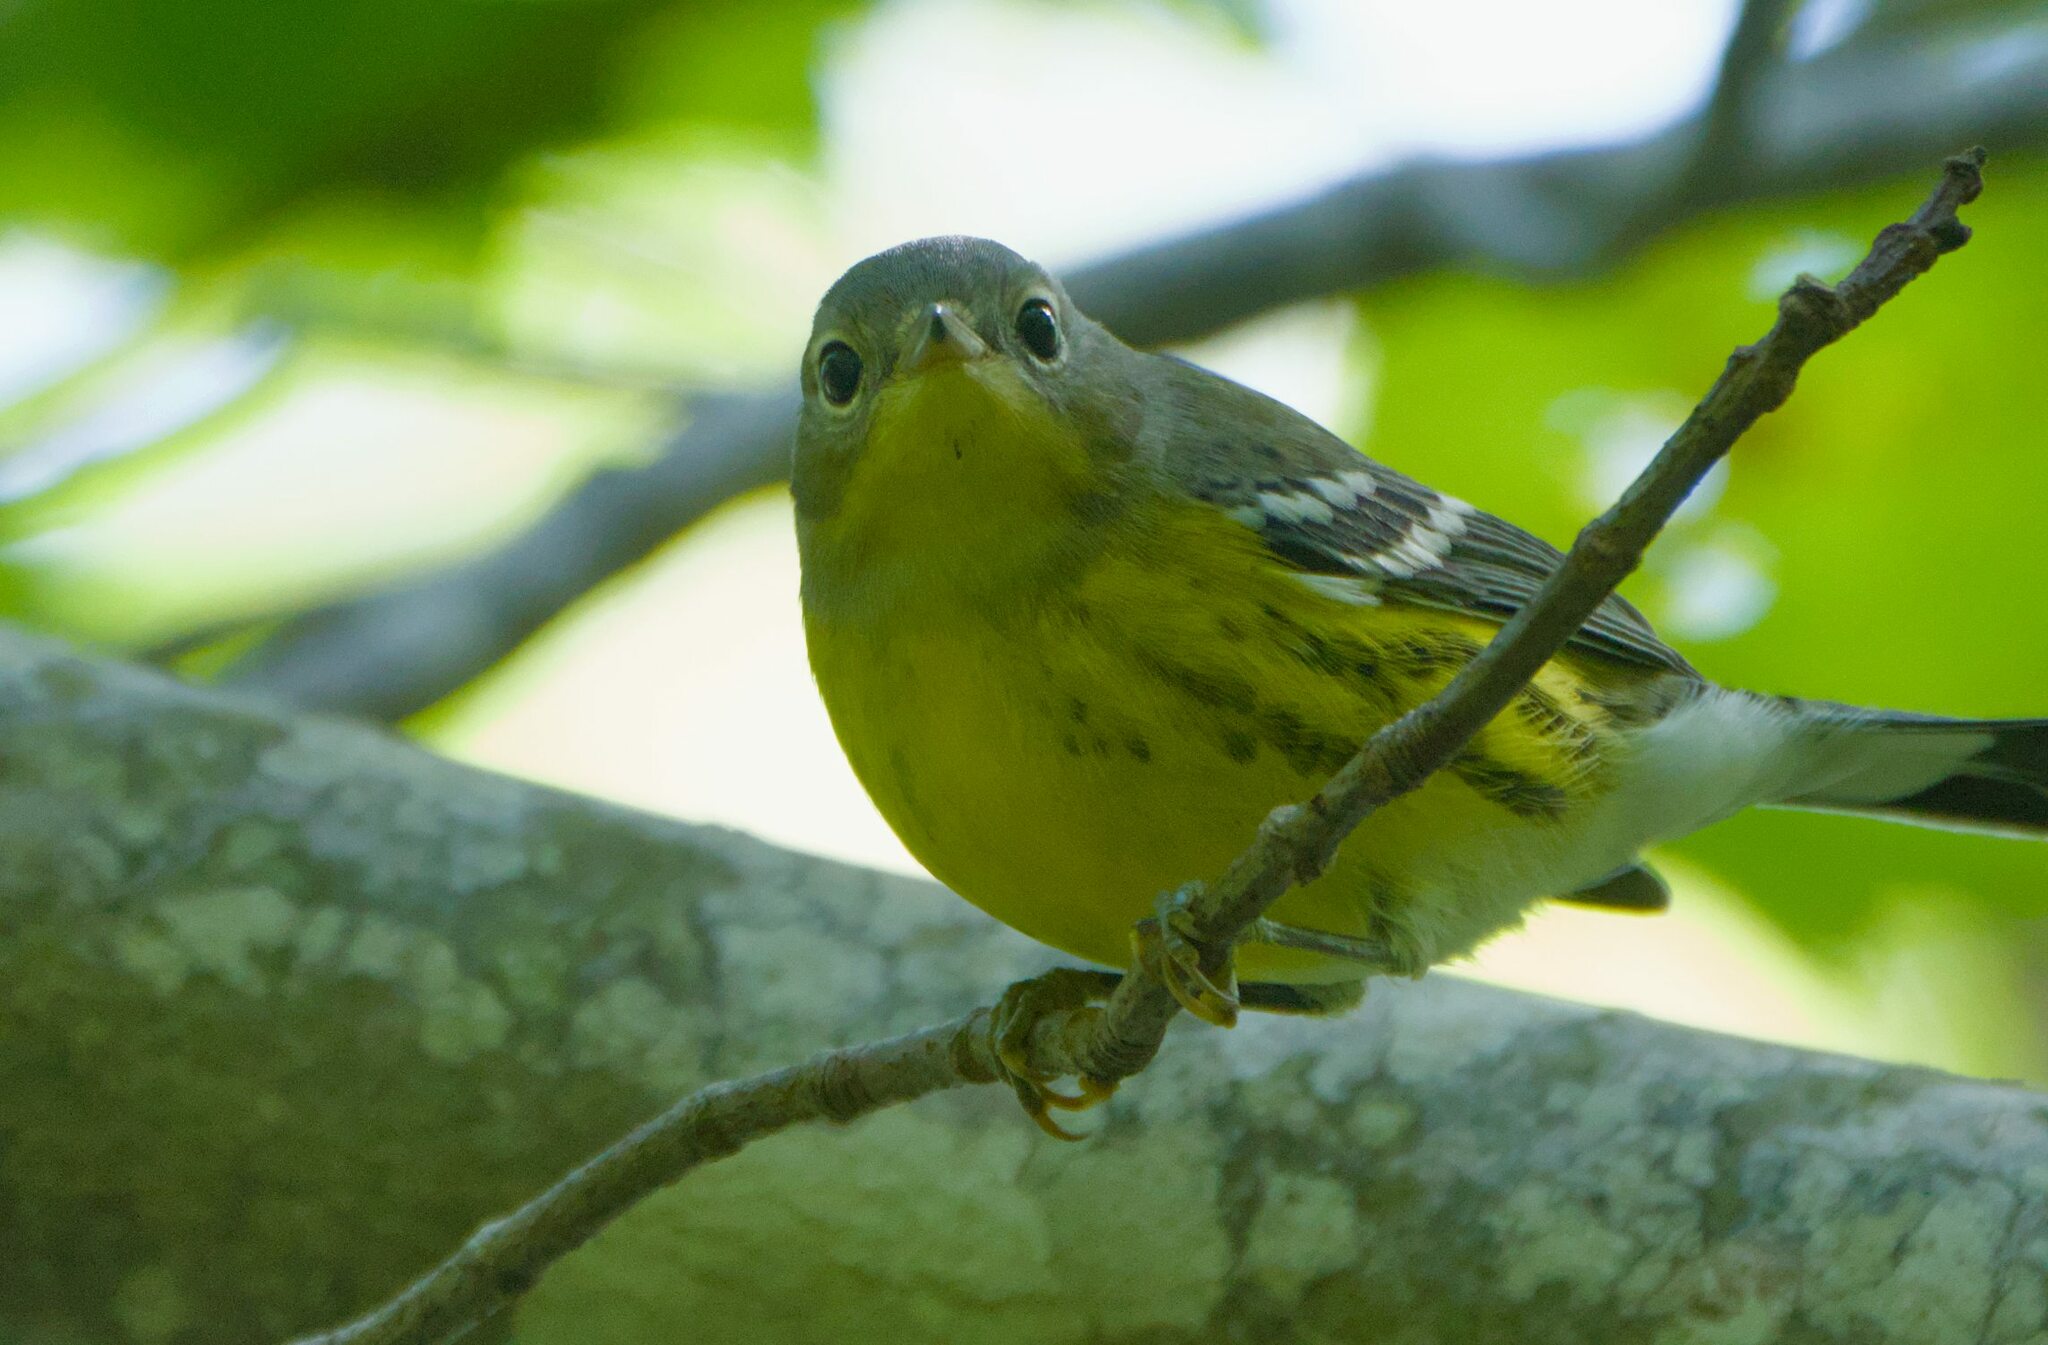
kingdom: Animalia
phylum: Chordata
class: Aves
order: Passeriformes
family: Parulidae
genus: Setophaga
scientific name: Setophaga magnolia
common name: Magnolia warbler
